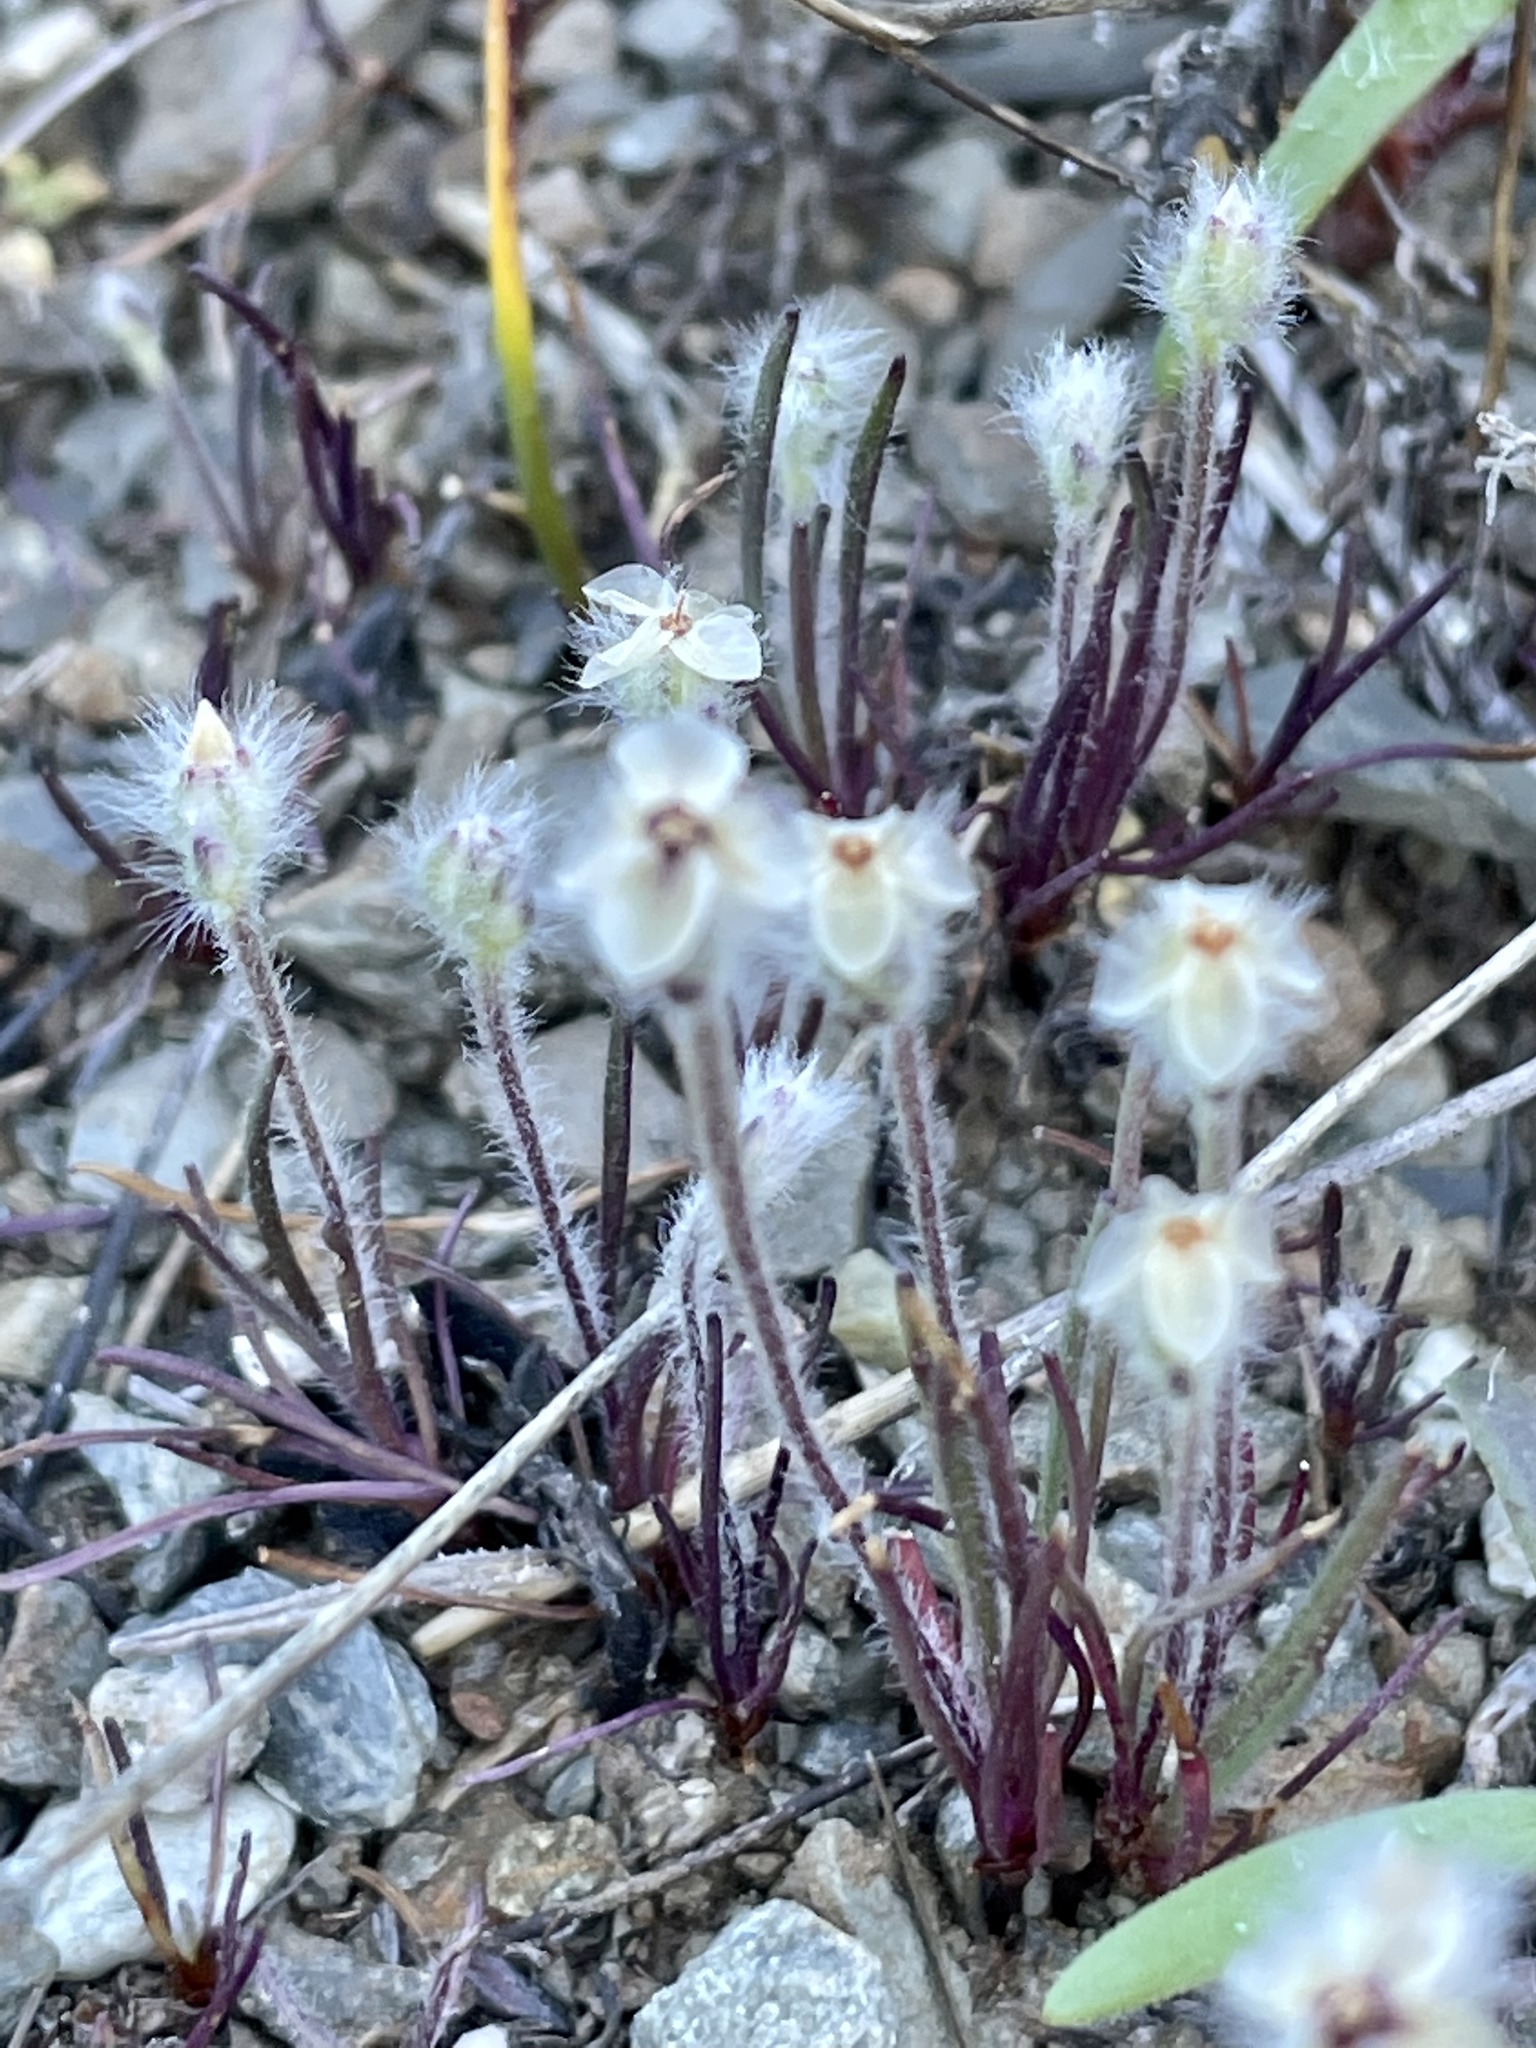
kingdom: Plantae
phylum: Tracheophyta
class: Magnoliopsida
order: Lamiales
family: Plantaginaceae
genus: Plantago
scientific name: Plantago erecta
